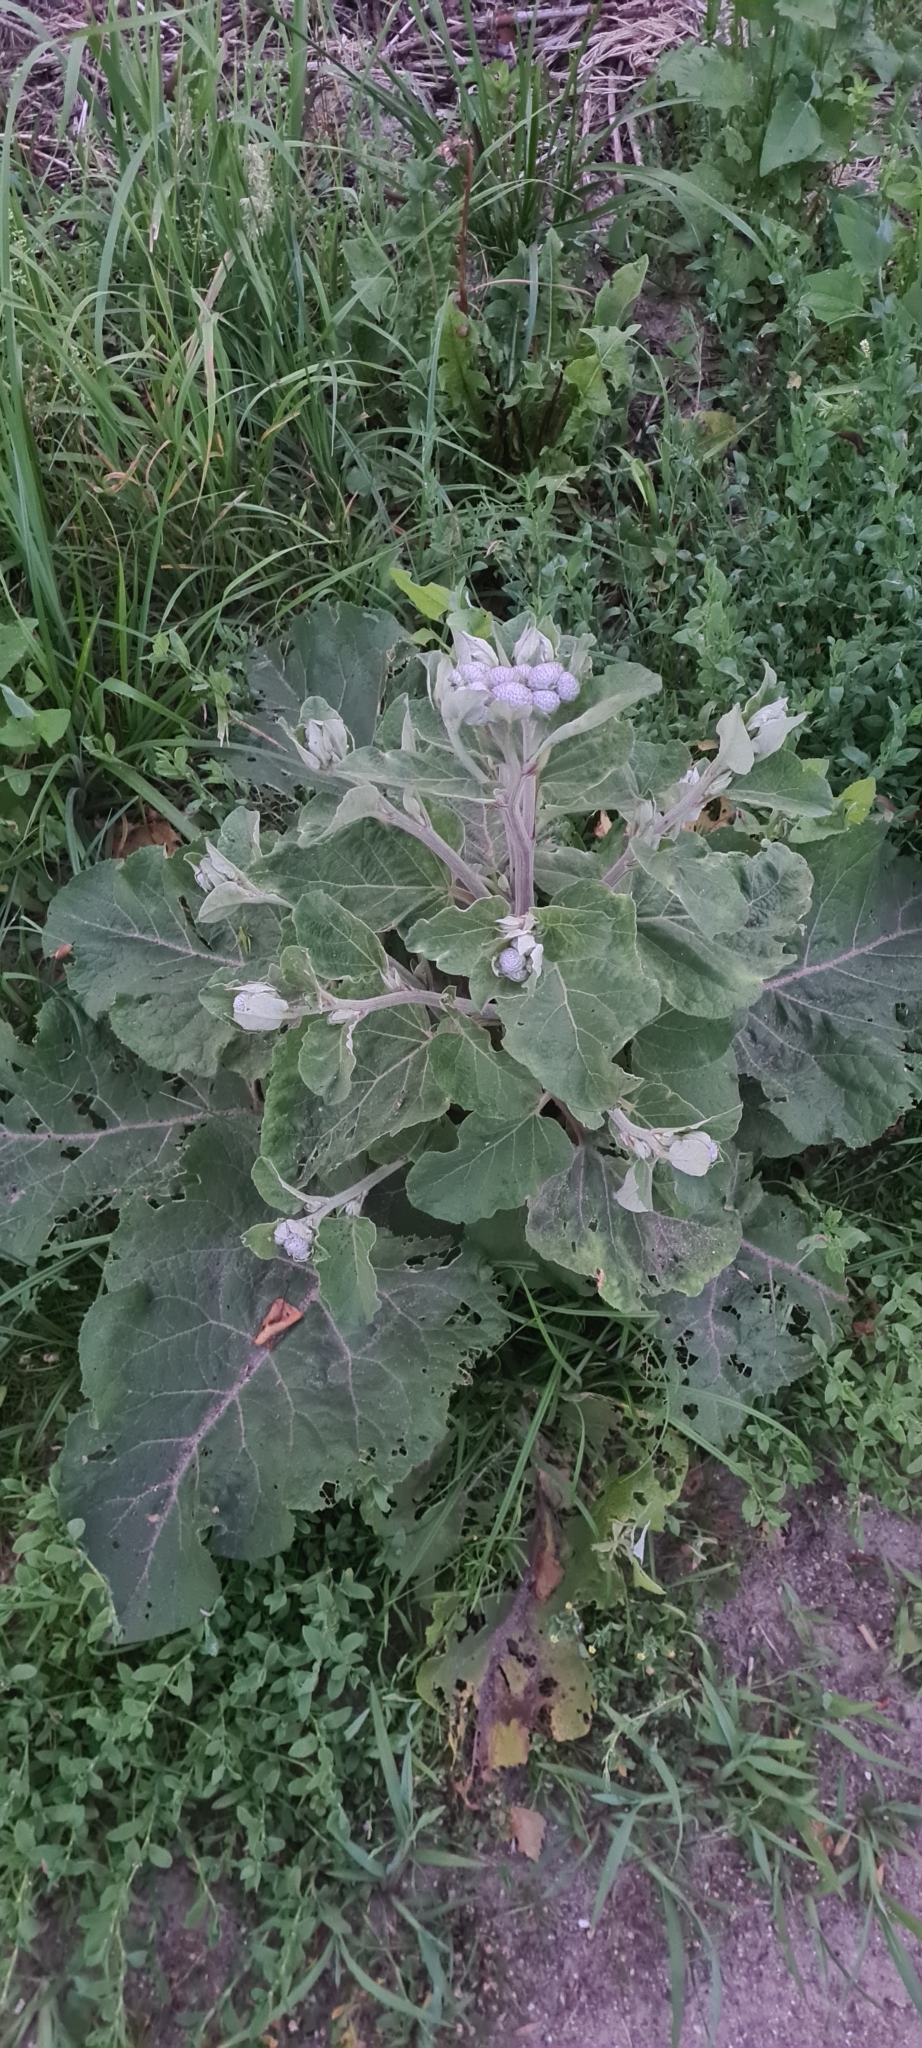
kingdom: Plantae
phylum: Tracheophyta
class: Magnoliopsida
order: Asterales
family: Asteraceae
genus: Arctium
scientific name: Arctium tomentosum
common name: Woolly burdock
